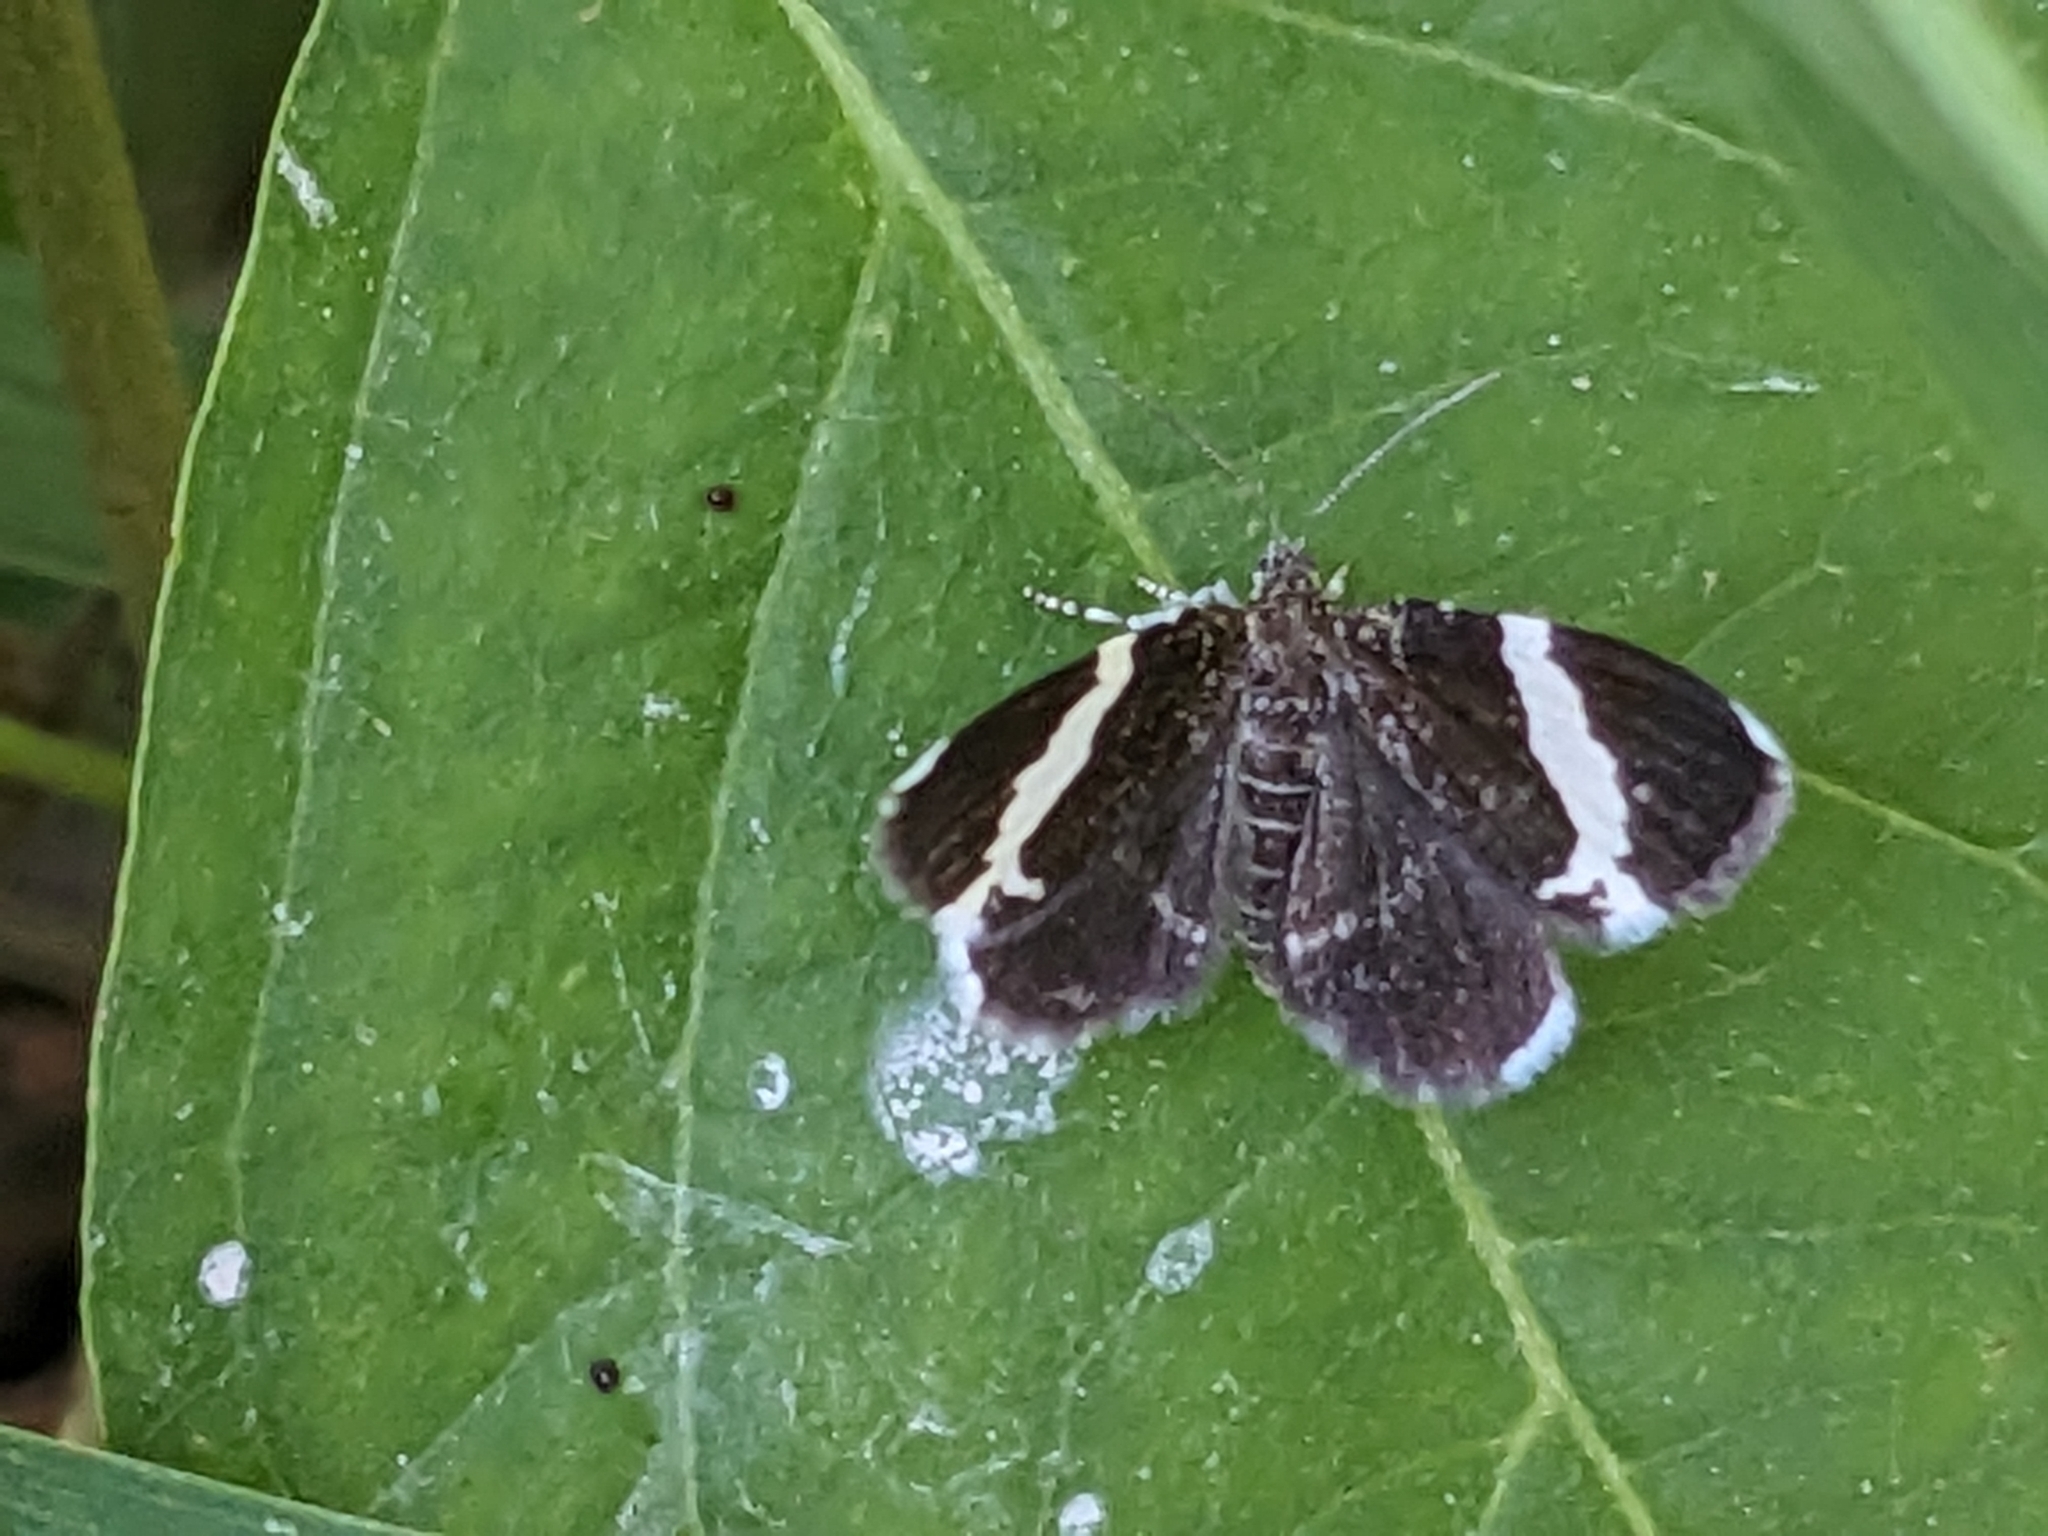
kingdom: Animalia
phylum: Arthropoda
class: Insecta
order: Lepidoptera
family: Geometridae
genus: Trichodezia
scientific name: Trichodezia albovittata
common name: White striped black
